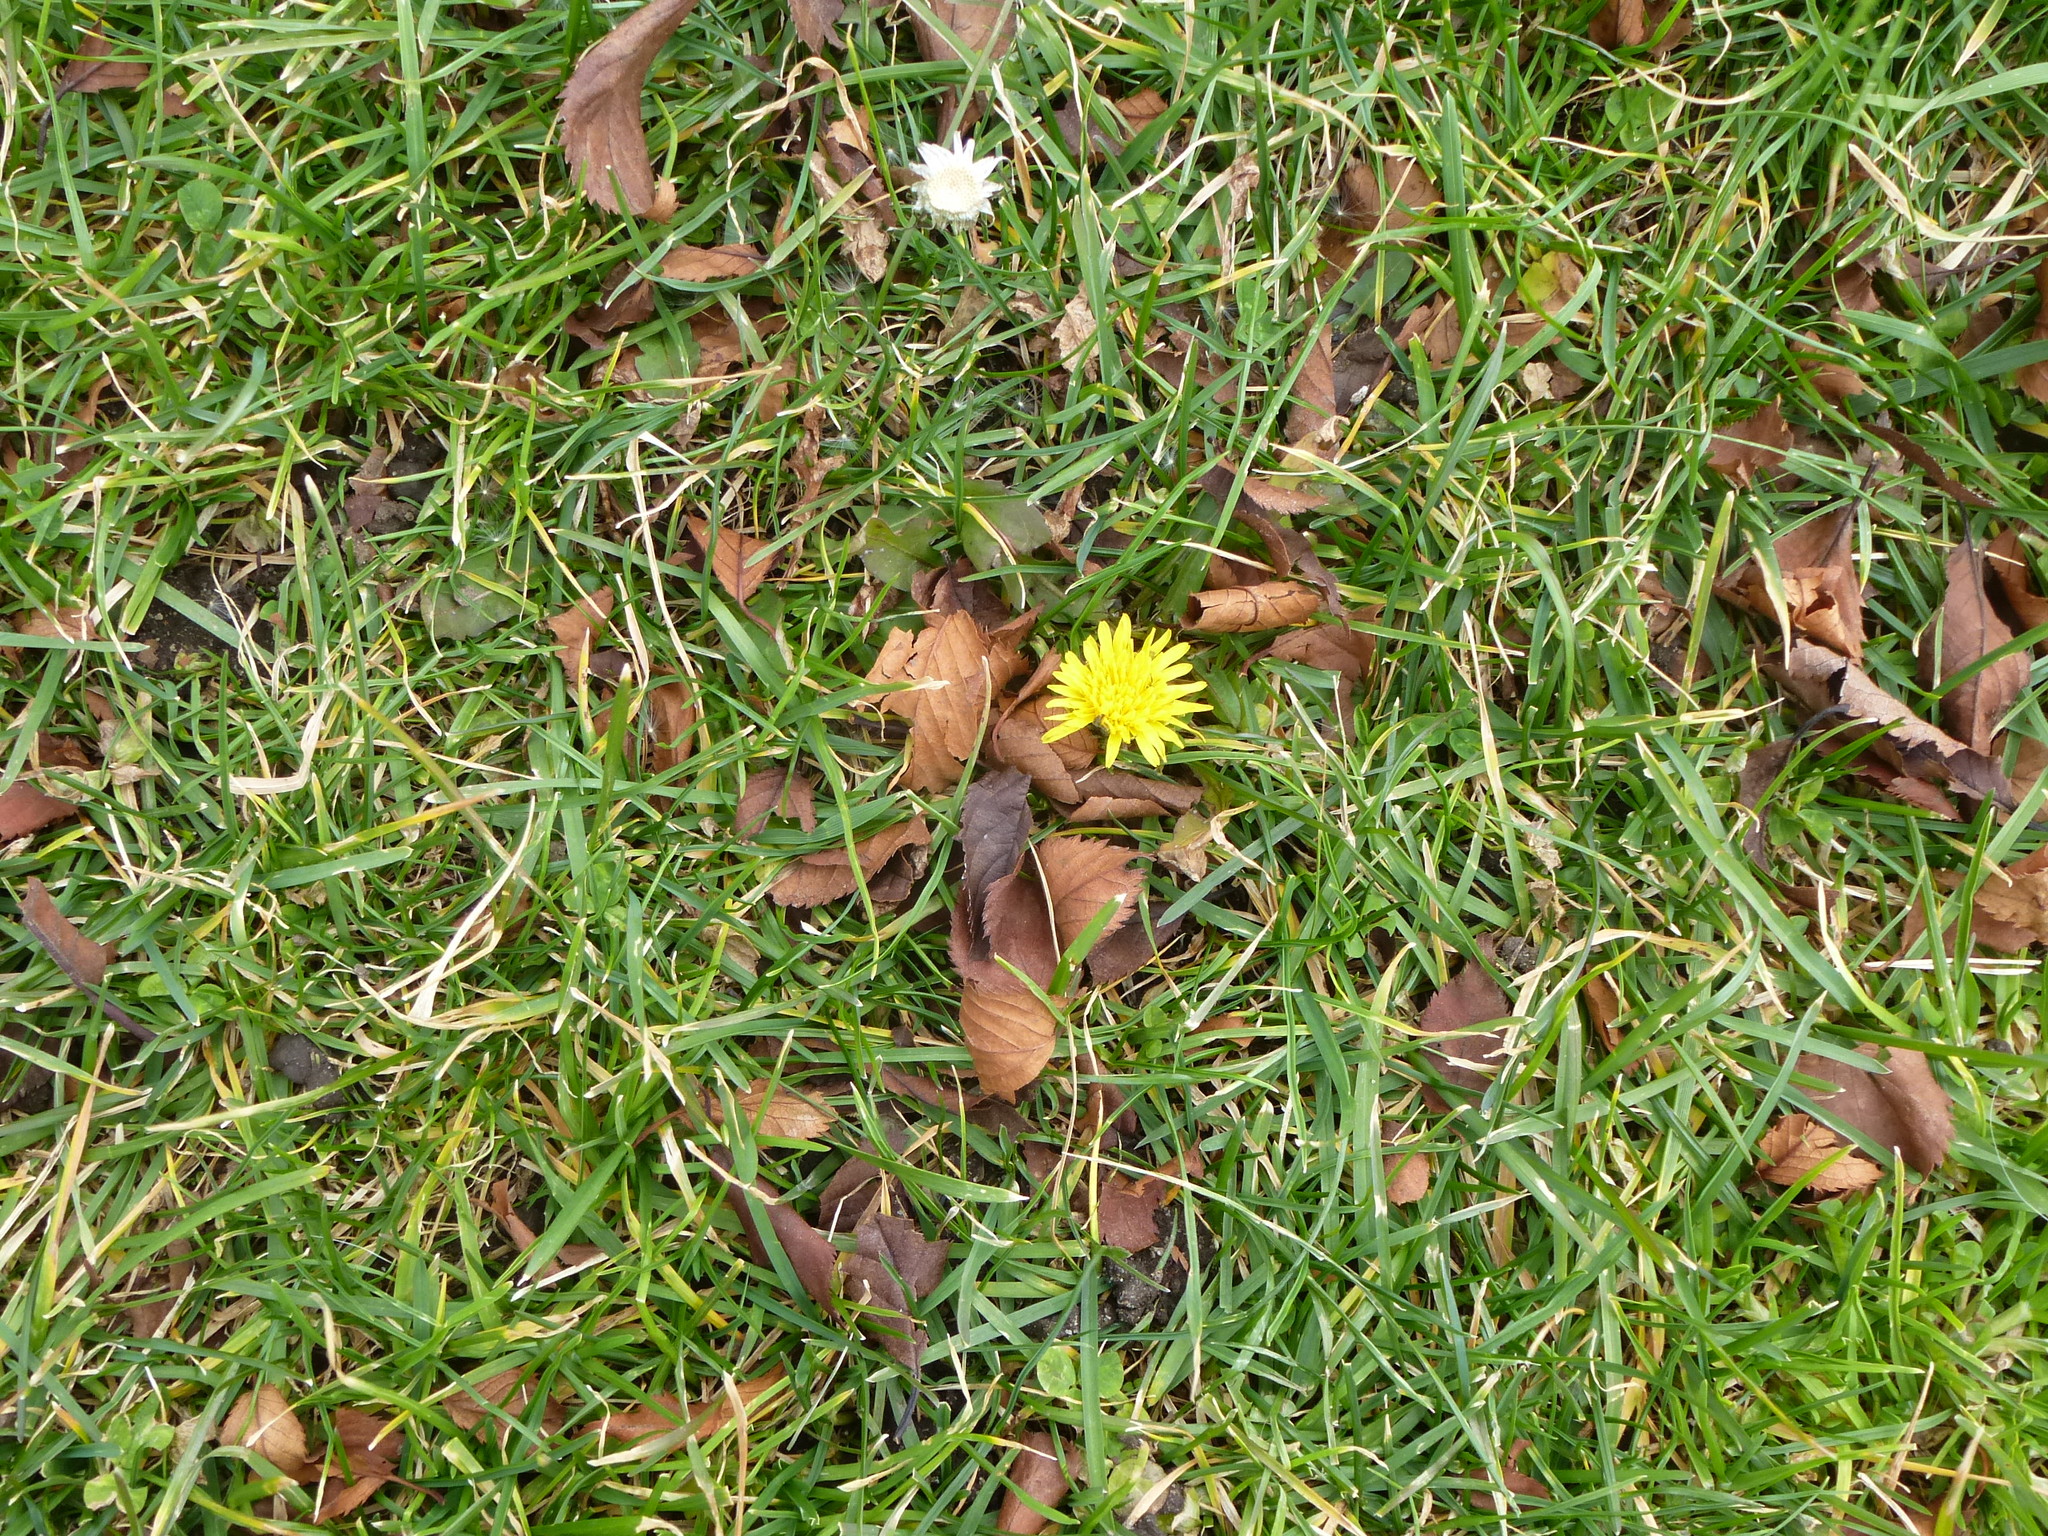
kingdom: Plantae
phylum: Tracheophyta
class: Magnoliopsida
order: Asterales
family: Asteraceae
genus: Taraxacum
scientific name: Taraxacum officinale
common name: Common dandelion
